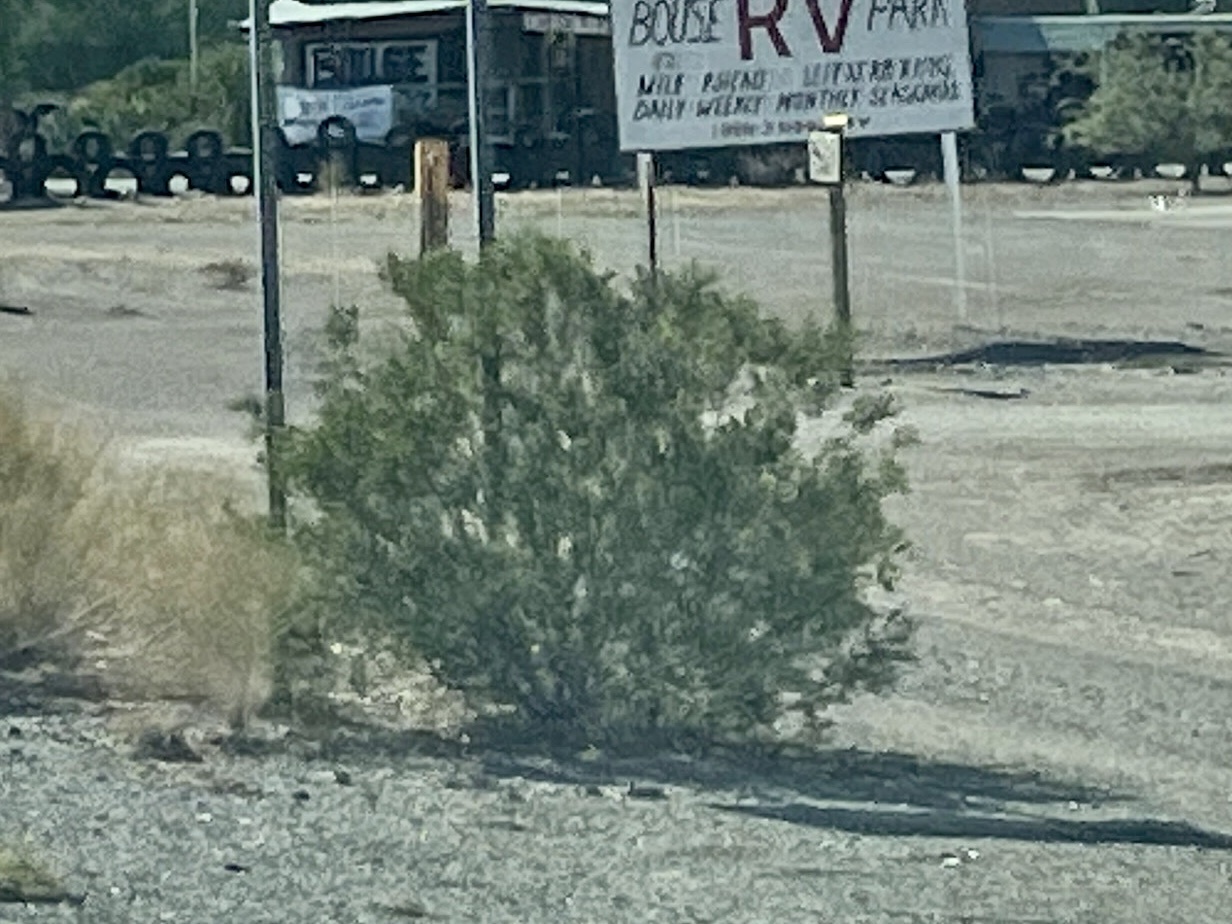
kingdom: Plantae
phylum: Tracheophyta
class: Magnoliopsida
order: Zygophyllales
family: Zygophyllaceae
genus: Larrea
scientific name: Larrea tridentata
